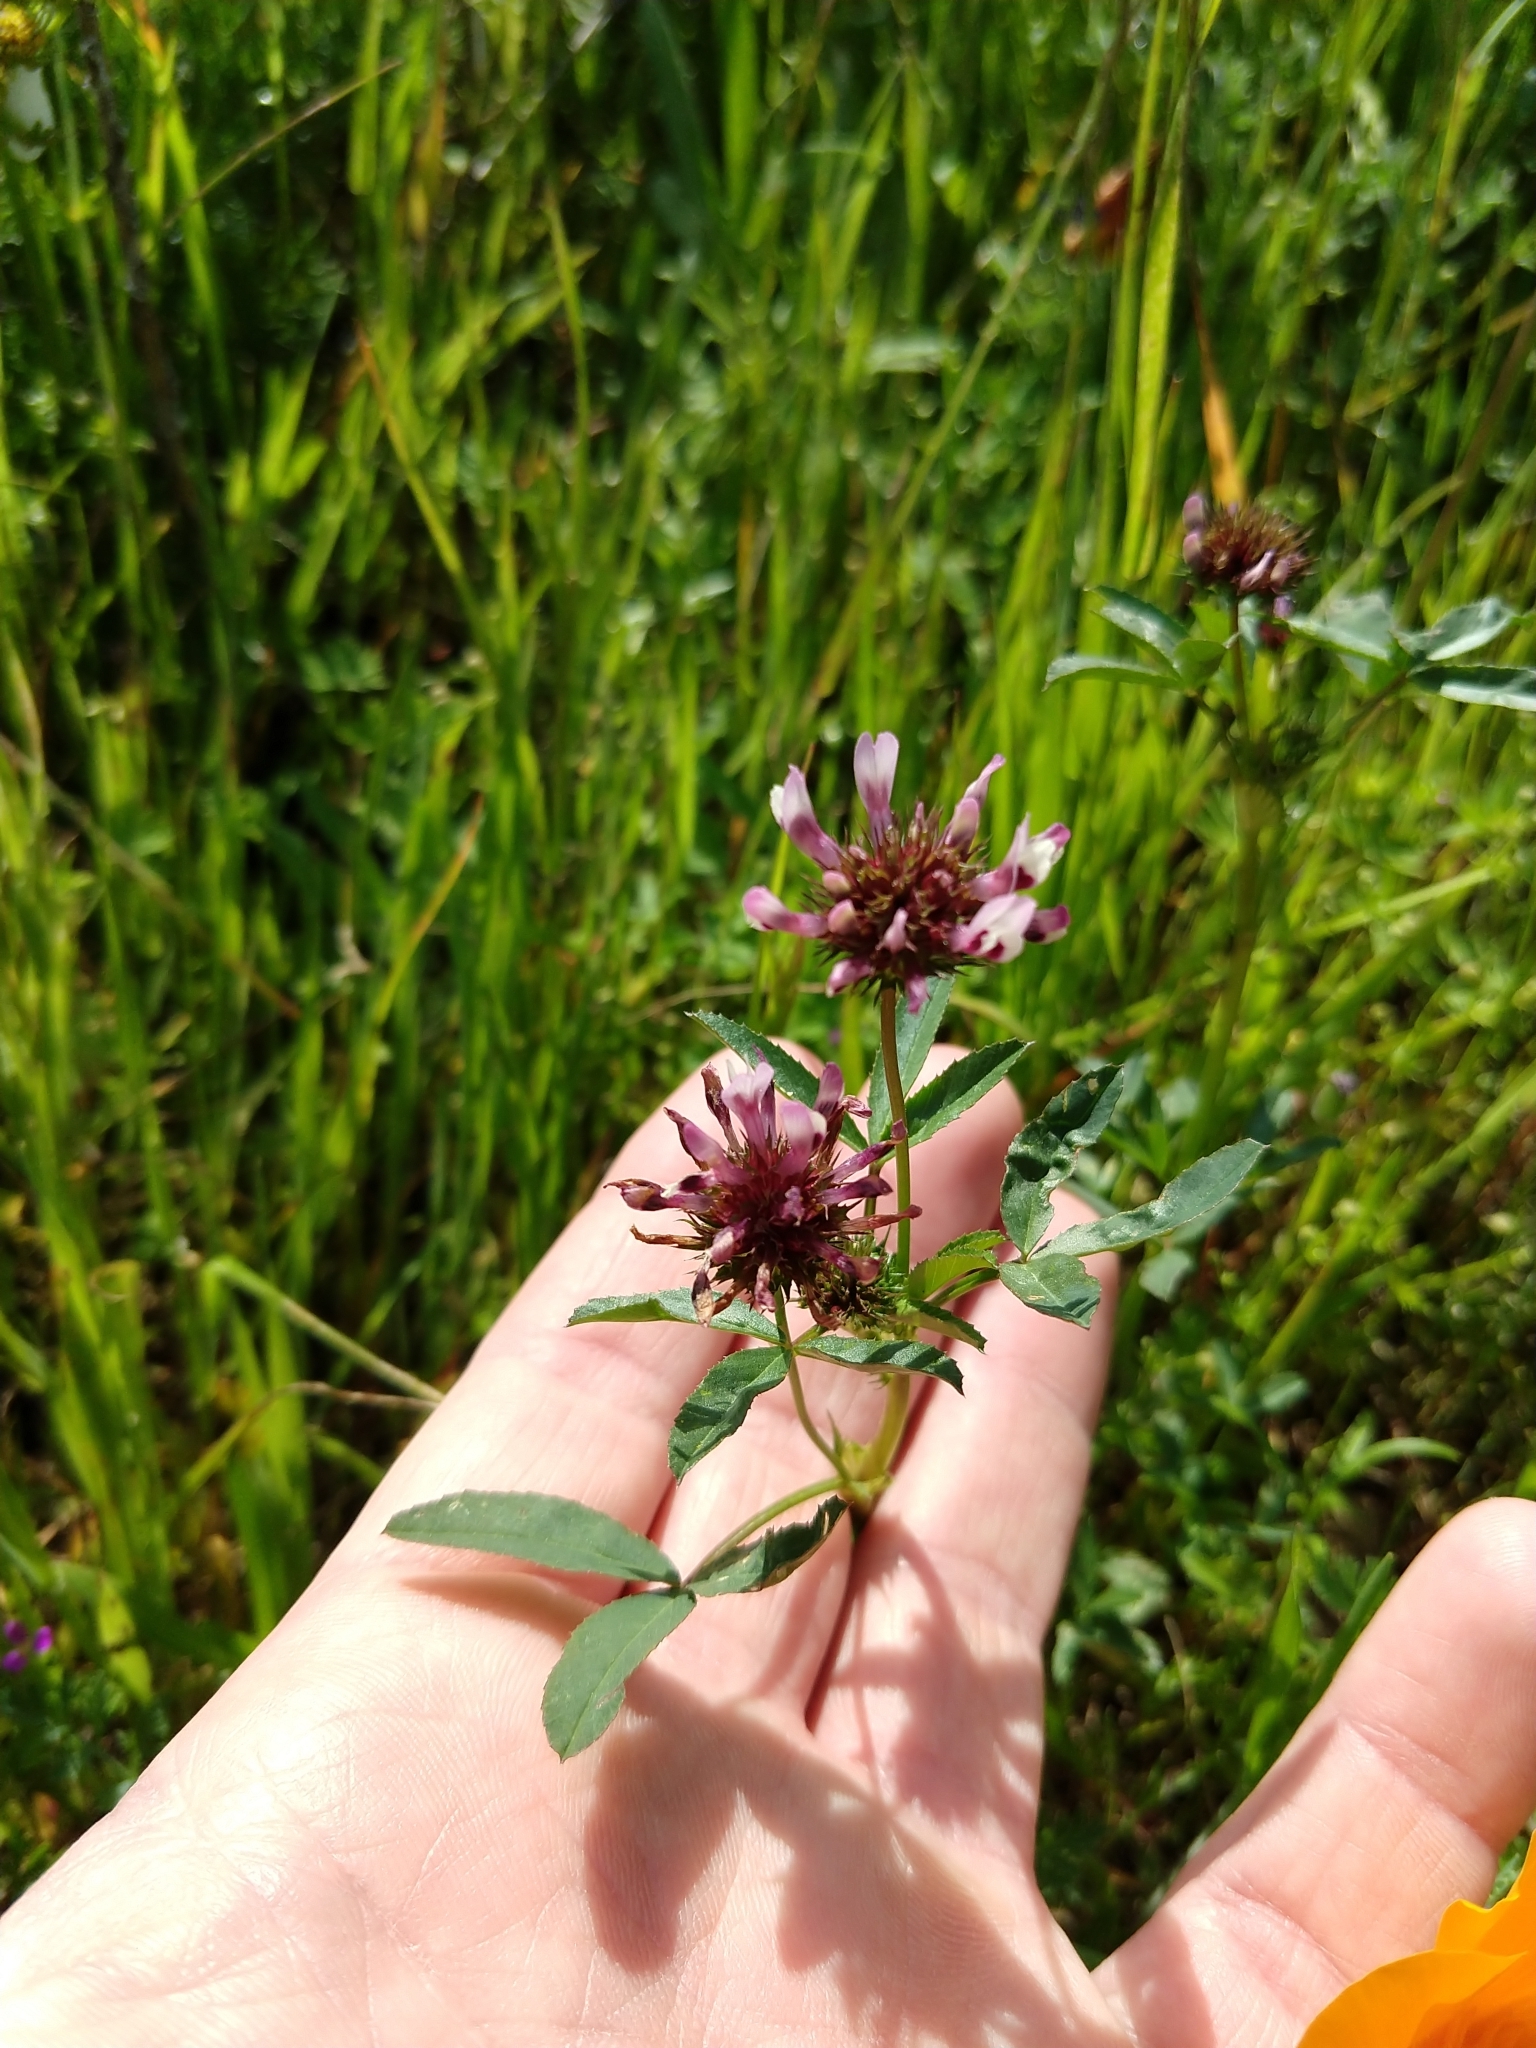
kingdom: Plantae
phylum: Tracheophyta
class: Magnoliopsida
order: Fabales
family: Fabaceae
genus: Trifolium
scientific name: Trifolium willdenovii
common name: Tomcat clover
